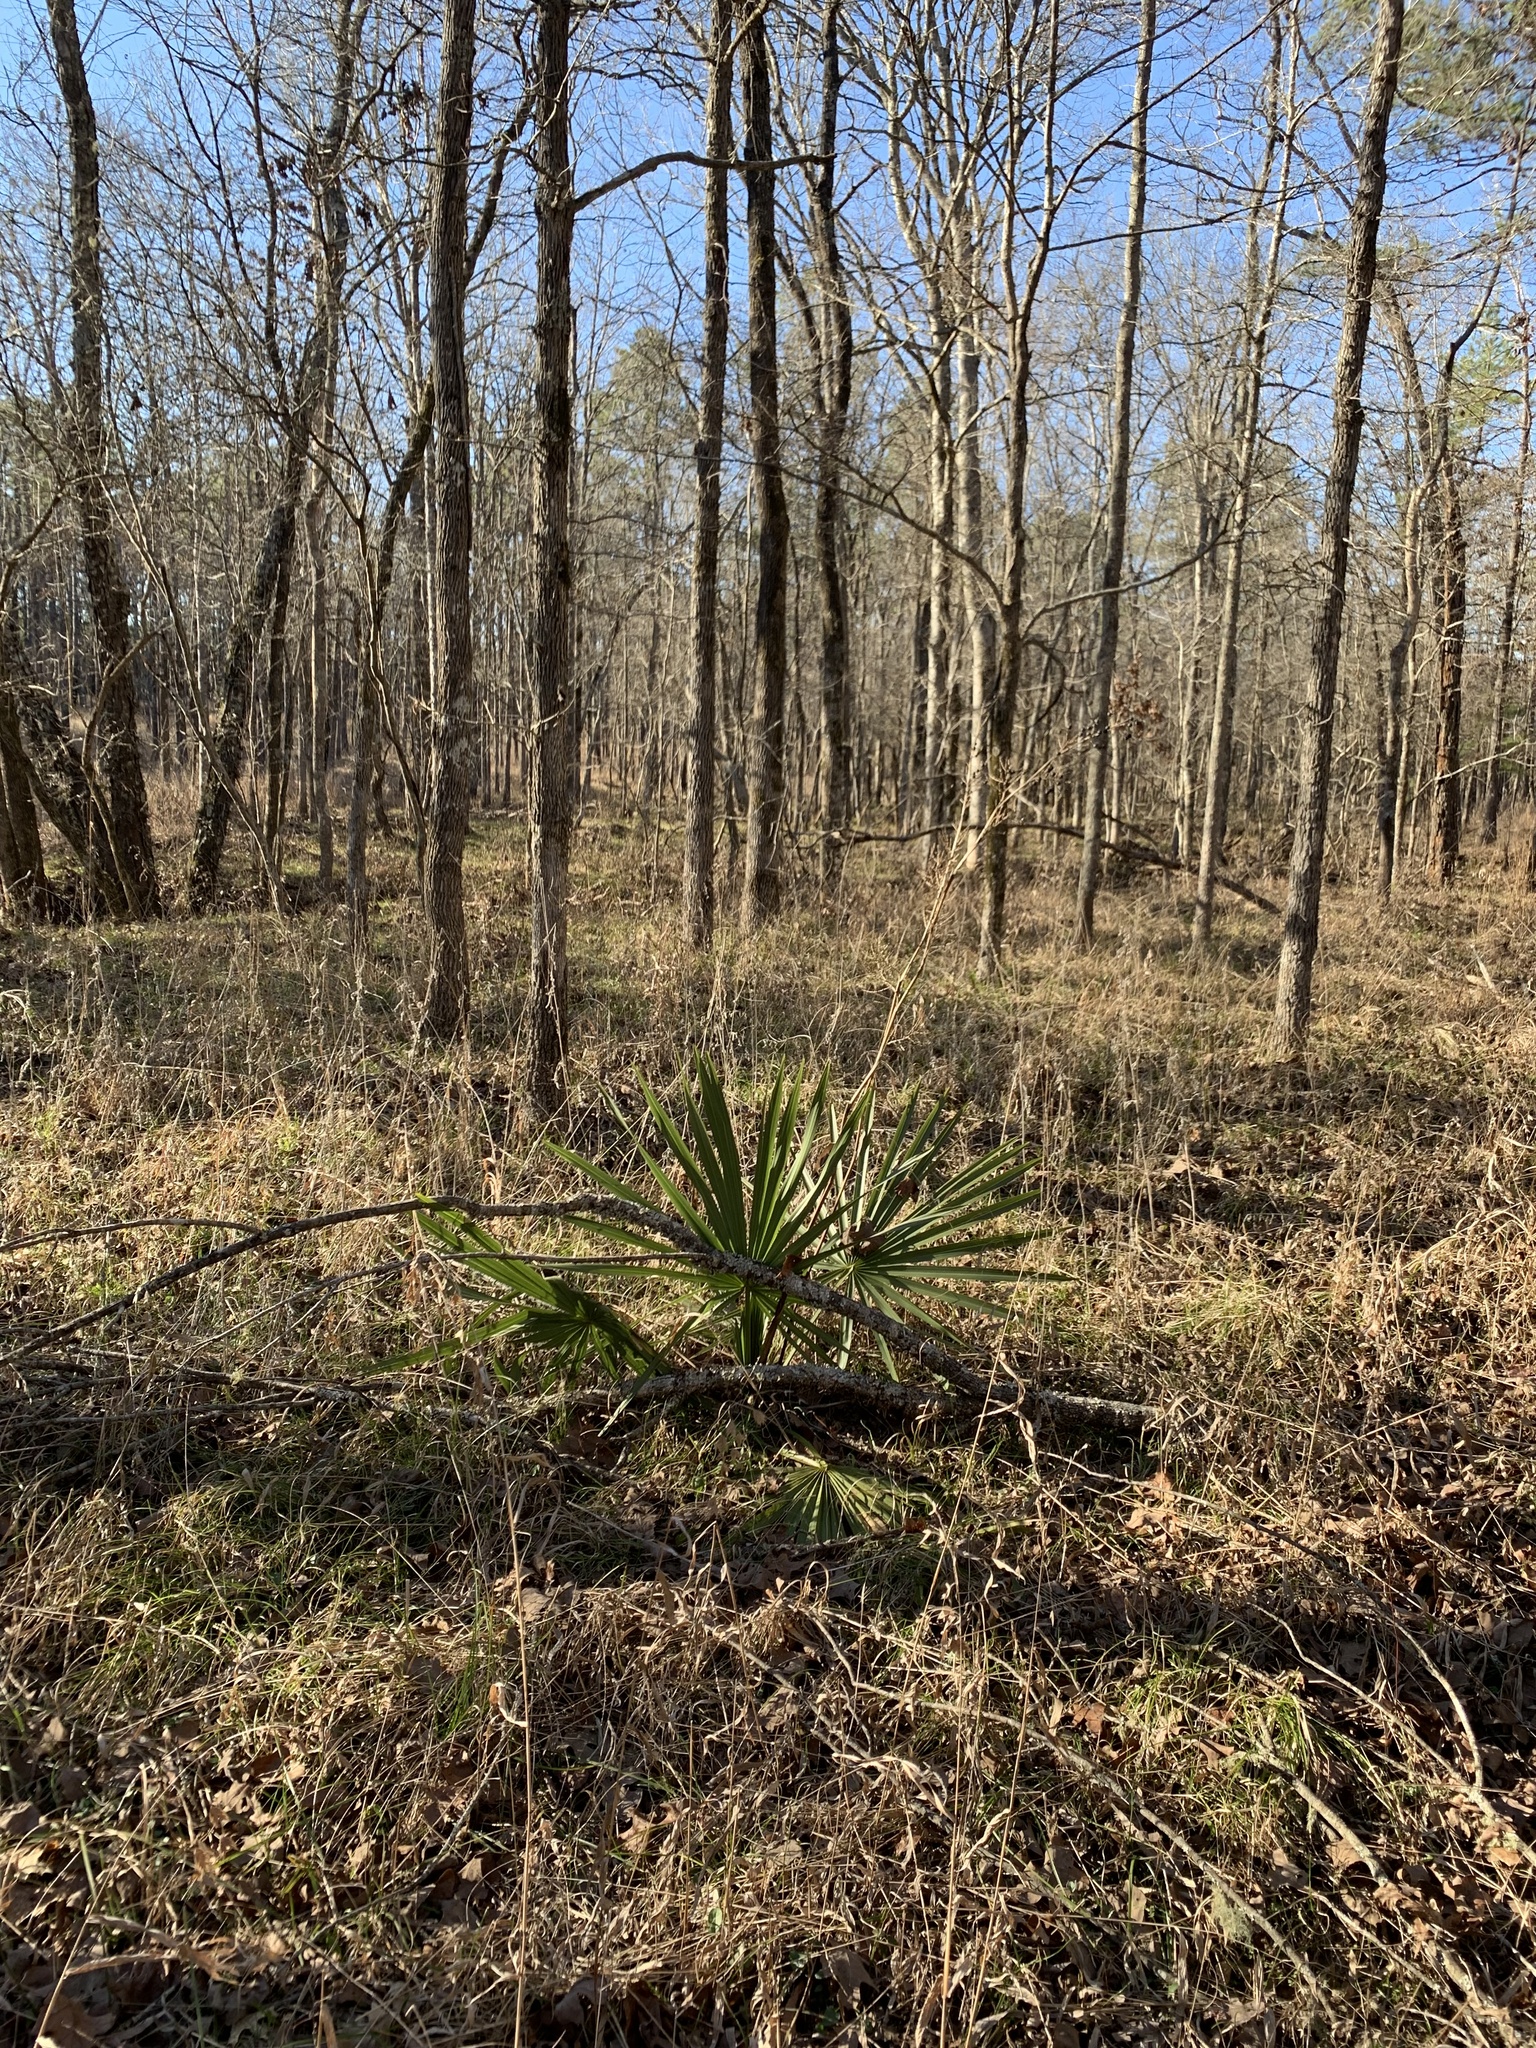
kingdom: Plantae
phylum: Tracheophyta
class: Liliopsida
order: Arecales
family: Arecaceae
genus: Sabal
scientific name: Sabal minor
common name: Dwarf palmetto
